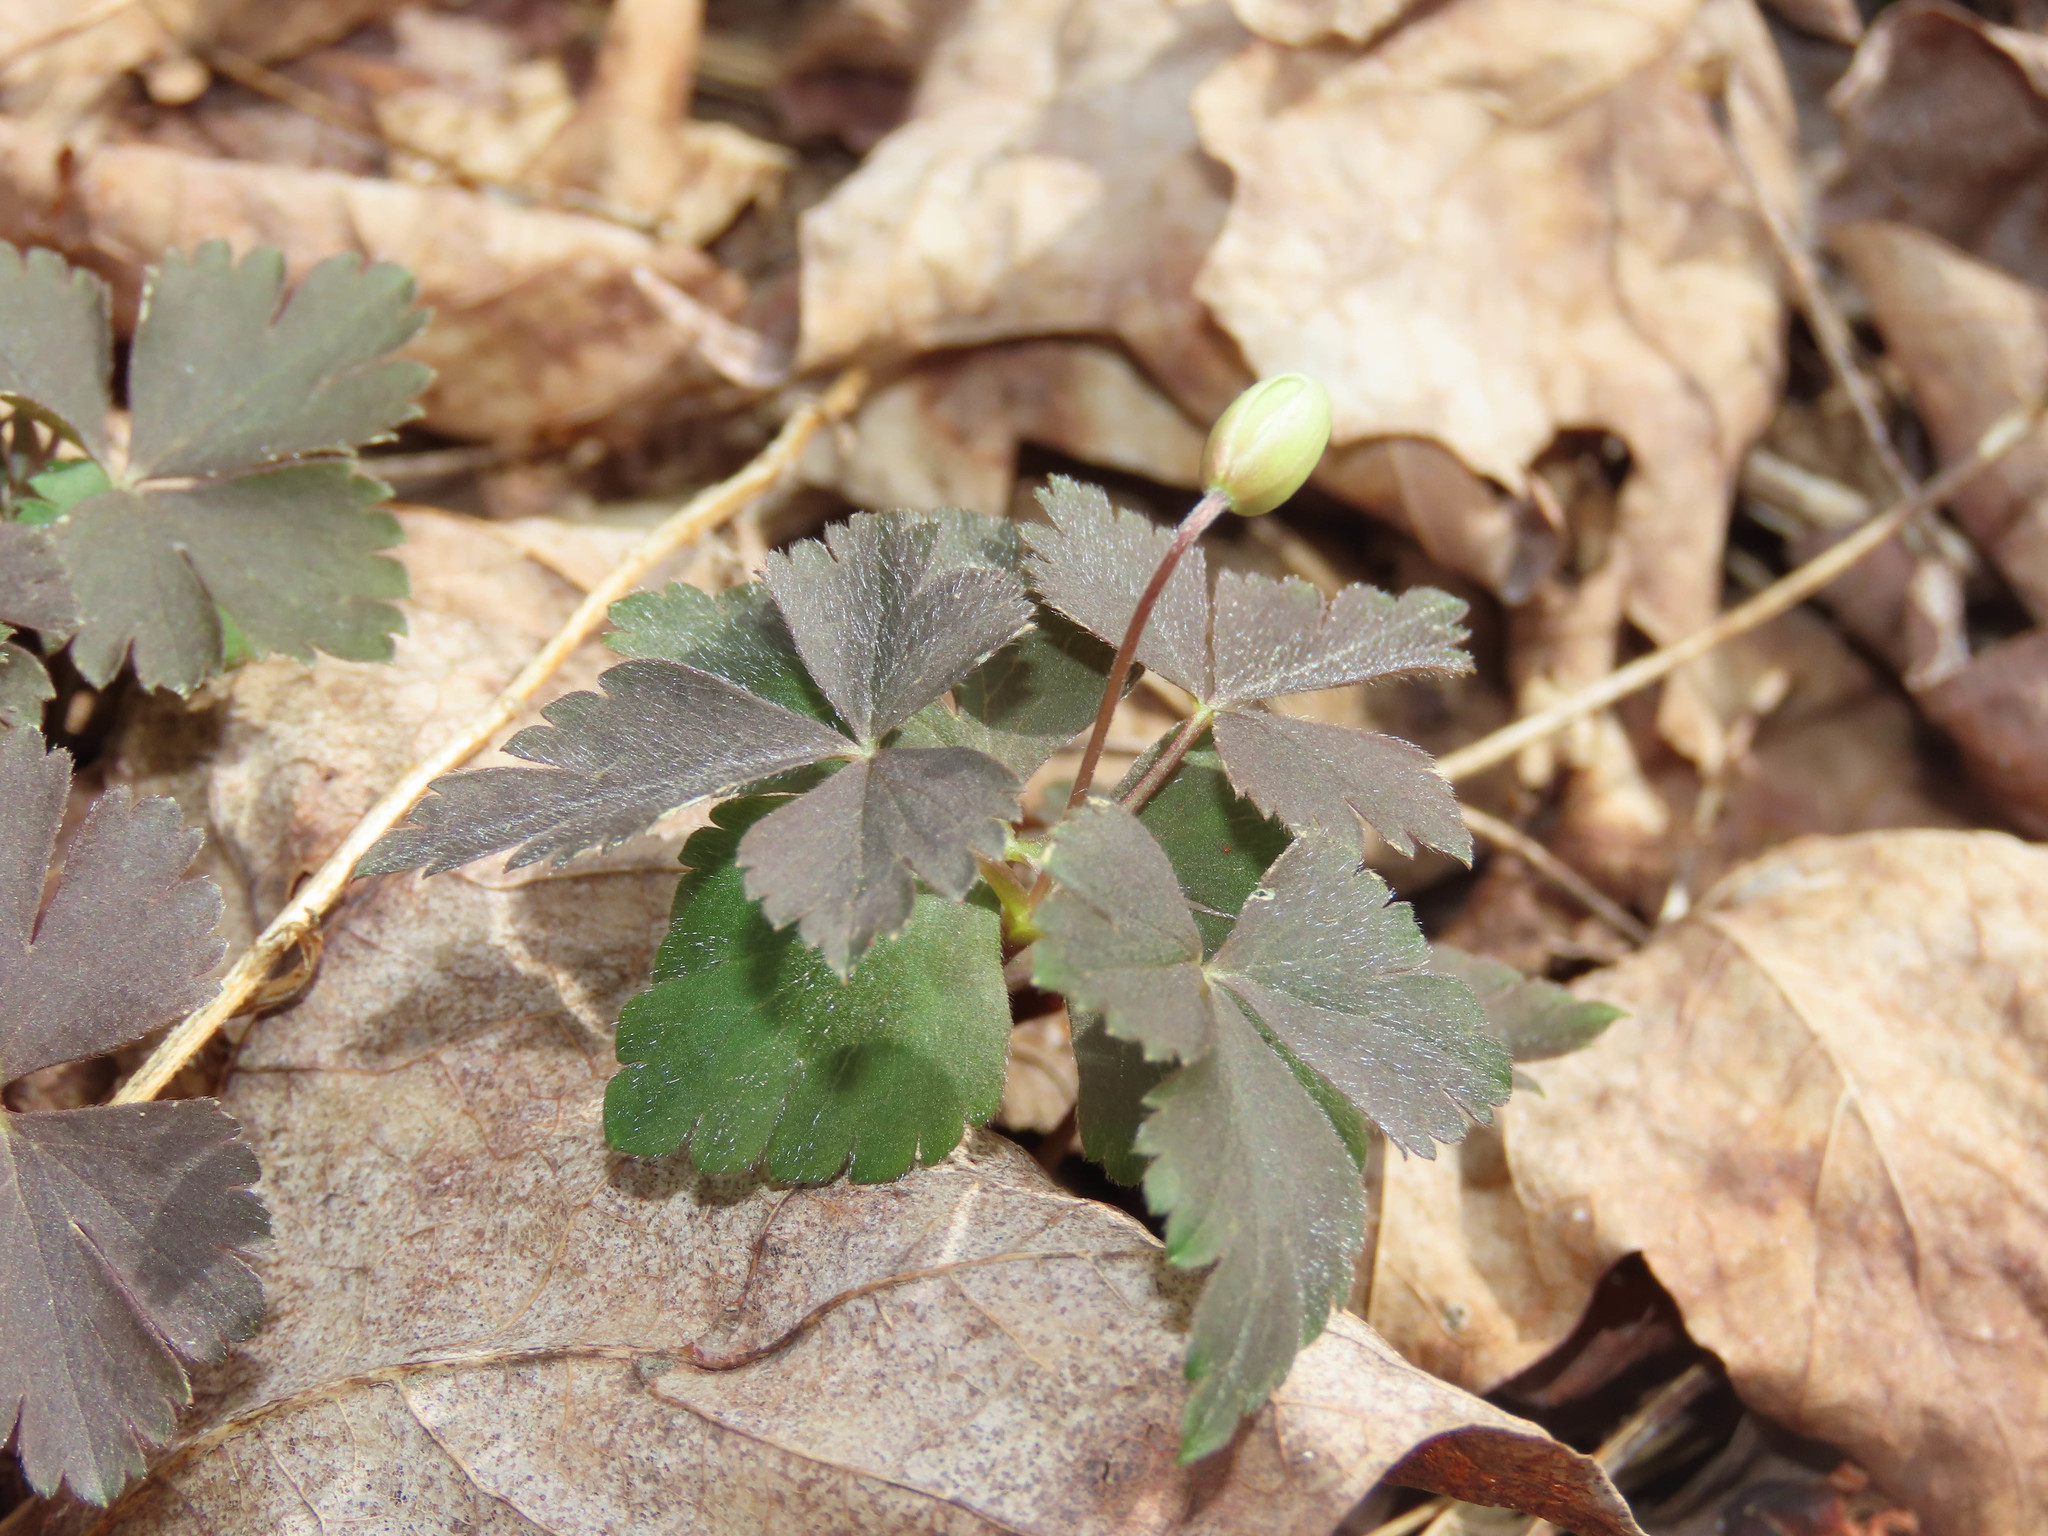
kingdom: Plantae
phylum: Tracheophyta
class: Magnoliopsida
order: Ranunculales
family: Ranunculaceae
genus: Anemone
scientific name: Anemone quinquefolia
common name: Wood anemone
